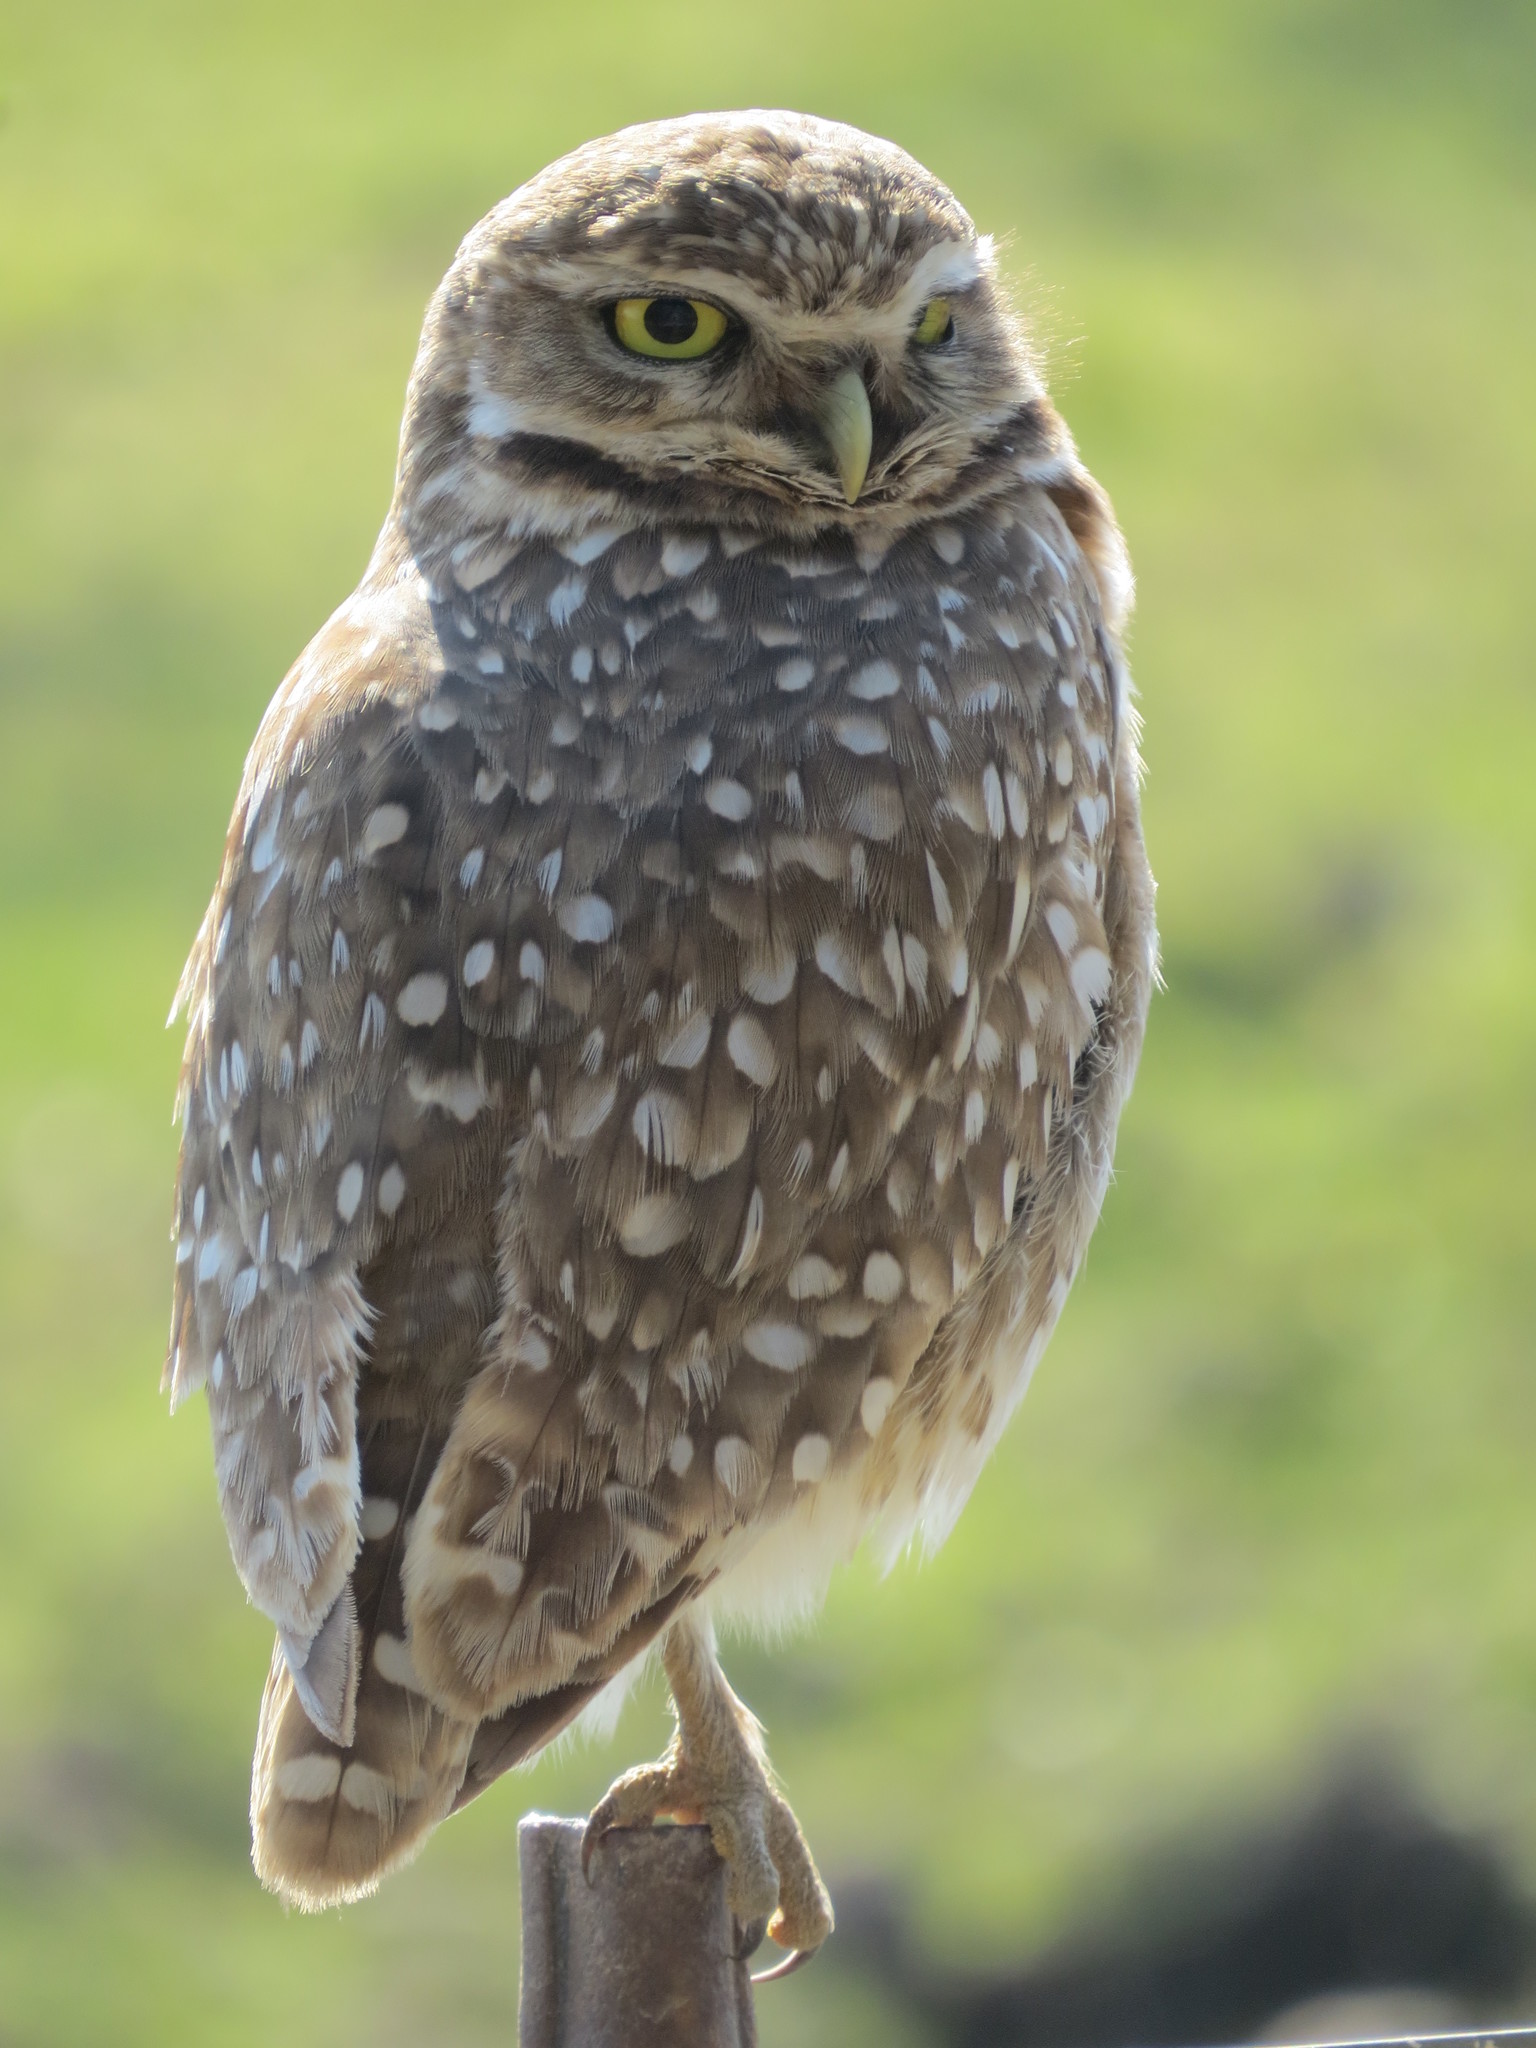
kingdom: Animalia
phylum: Chordata
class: Aves
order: Strigiformes
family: Strigidae
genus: Athene
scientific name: Athene cunicularia
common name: Burrowing owl
